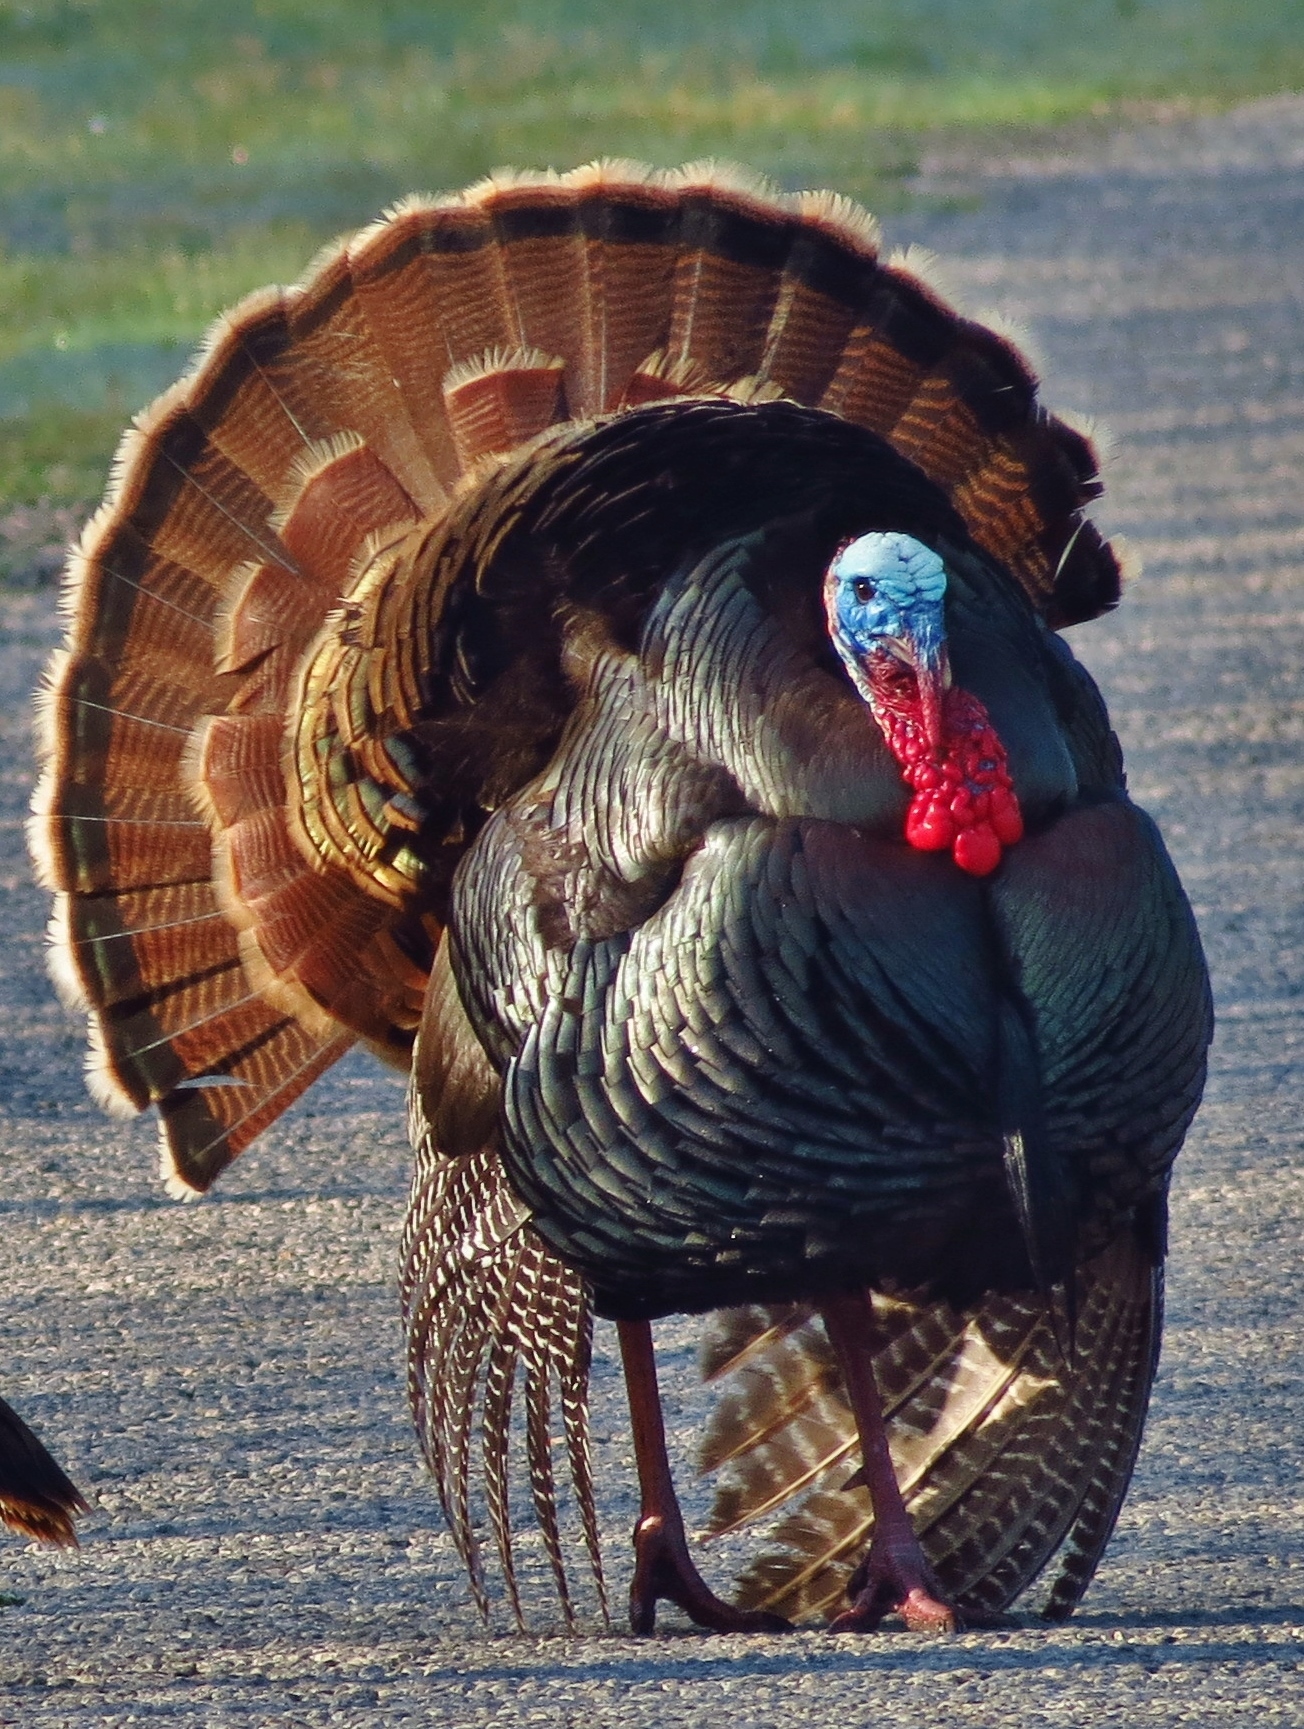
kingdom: Animalia
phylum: Chordata
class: Aves
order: Galliformes
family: Phasianidae
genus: Meleagris
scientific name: Meleagris gallopavo
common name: Wild turkey
